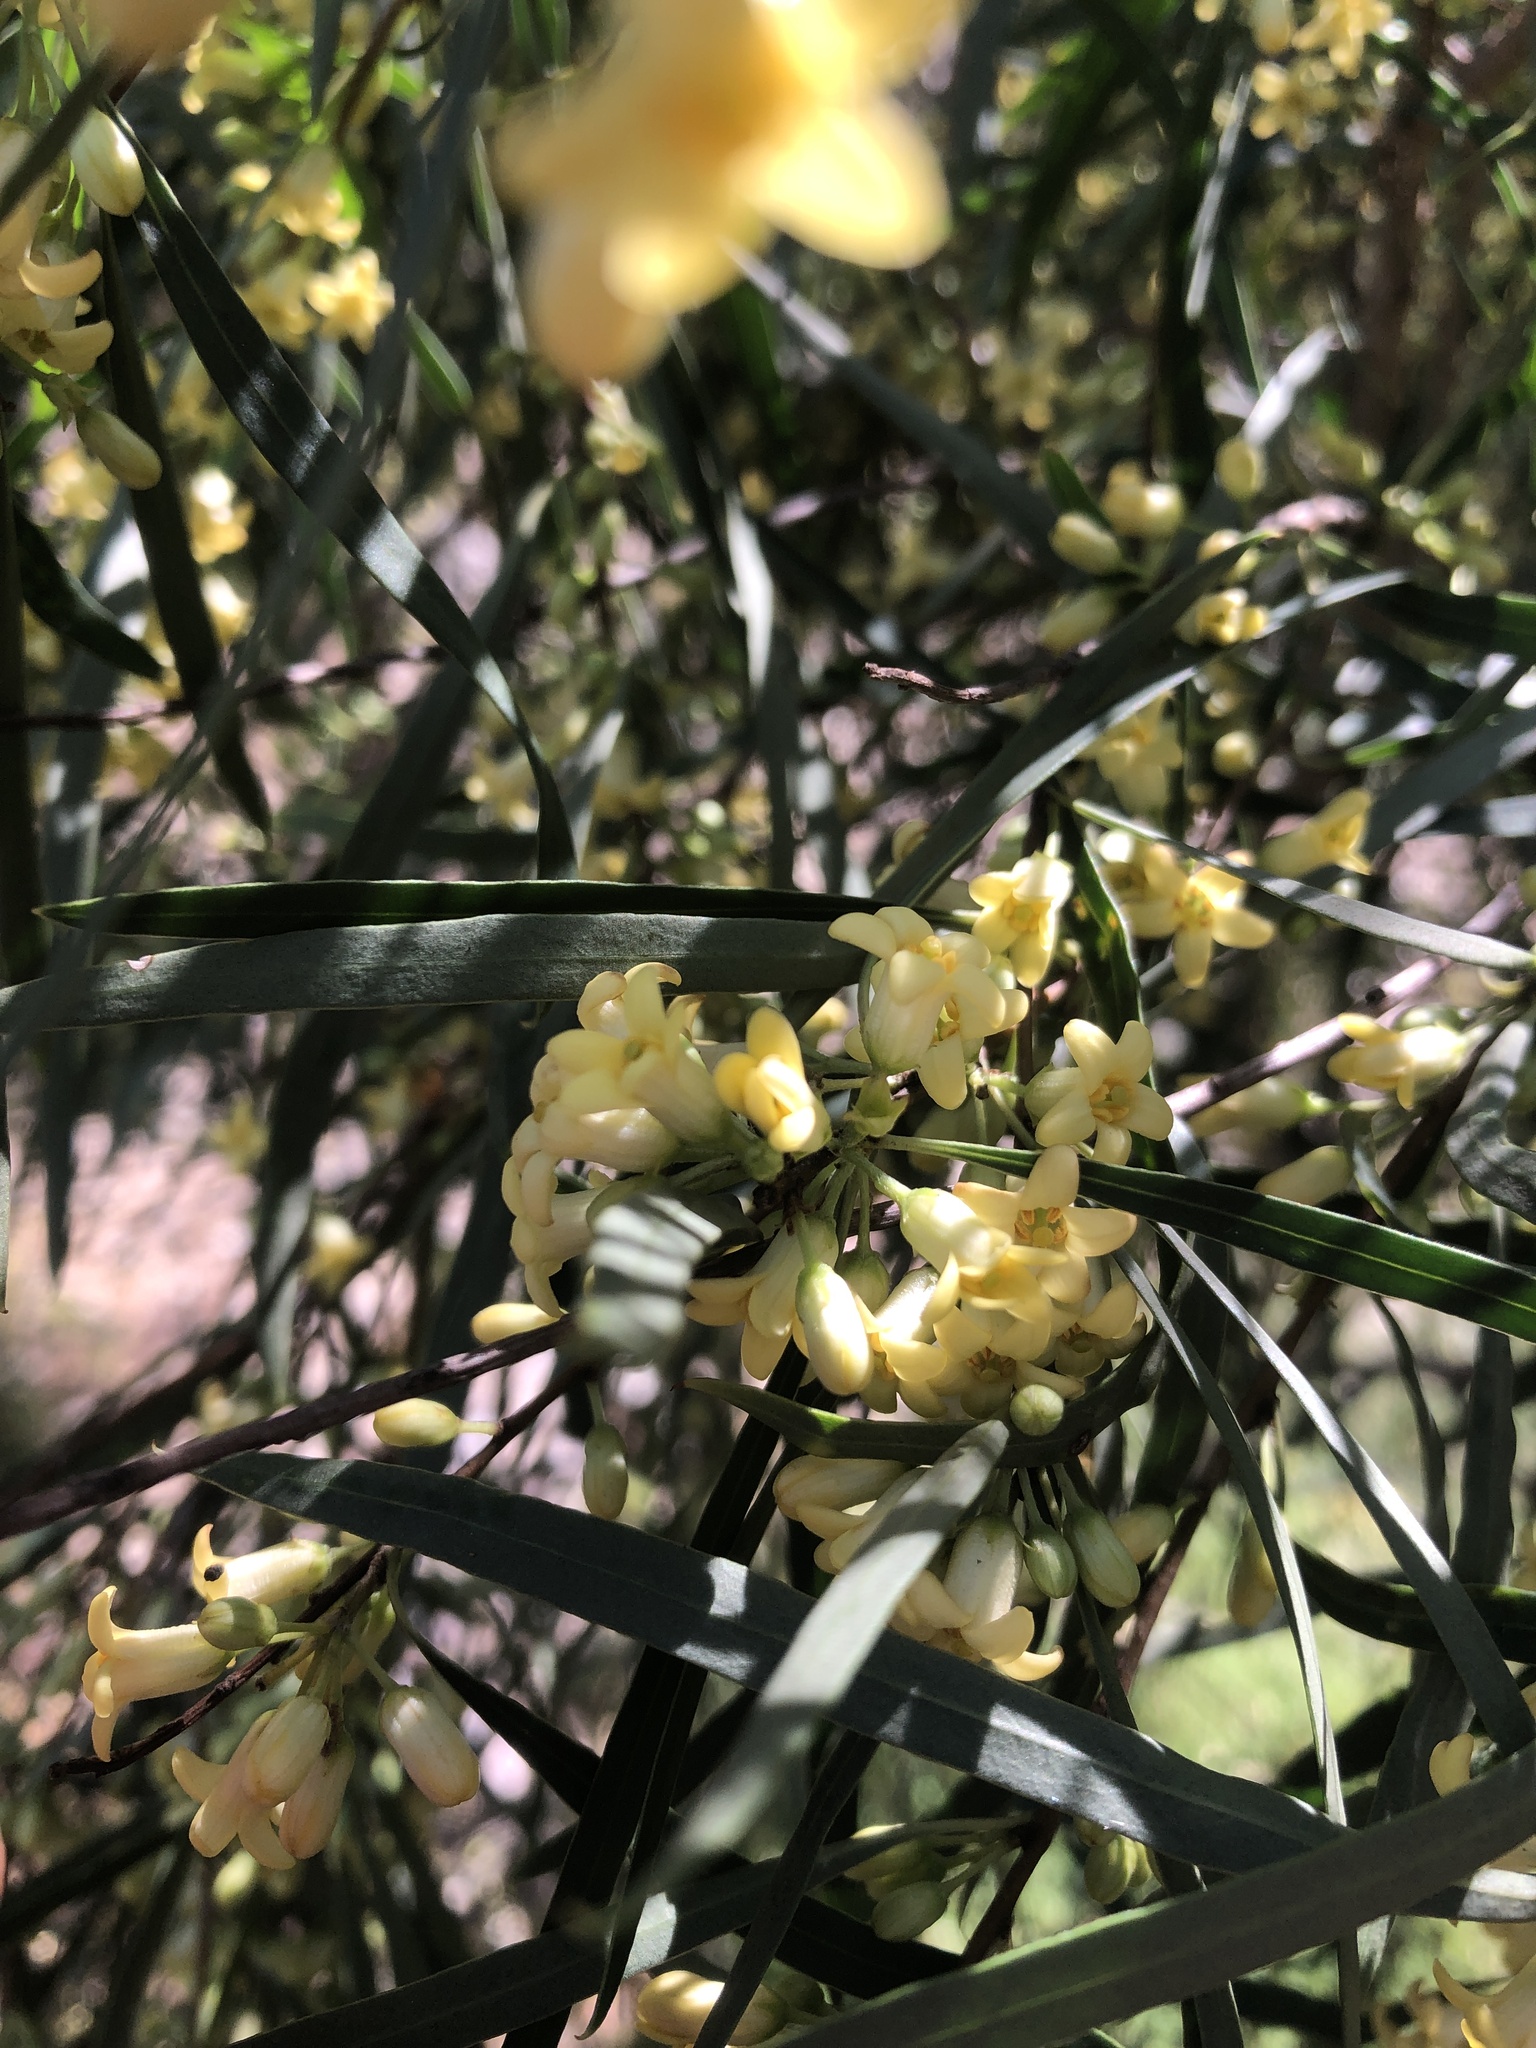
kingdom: Plantae
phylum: Tracheophyta
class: Magnoliopsida
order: Apiales
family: Pittosporaceae
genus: Pittosporum
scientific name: Pittosporum angustifolium
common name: Weeping pittosporum
